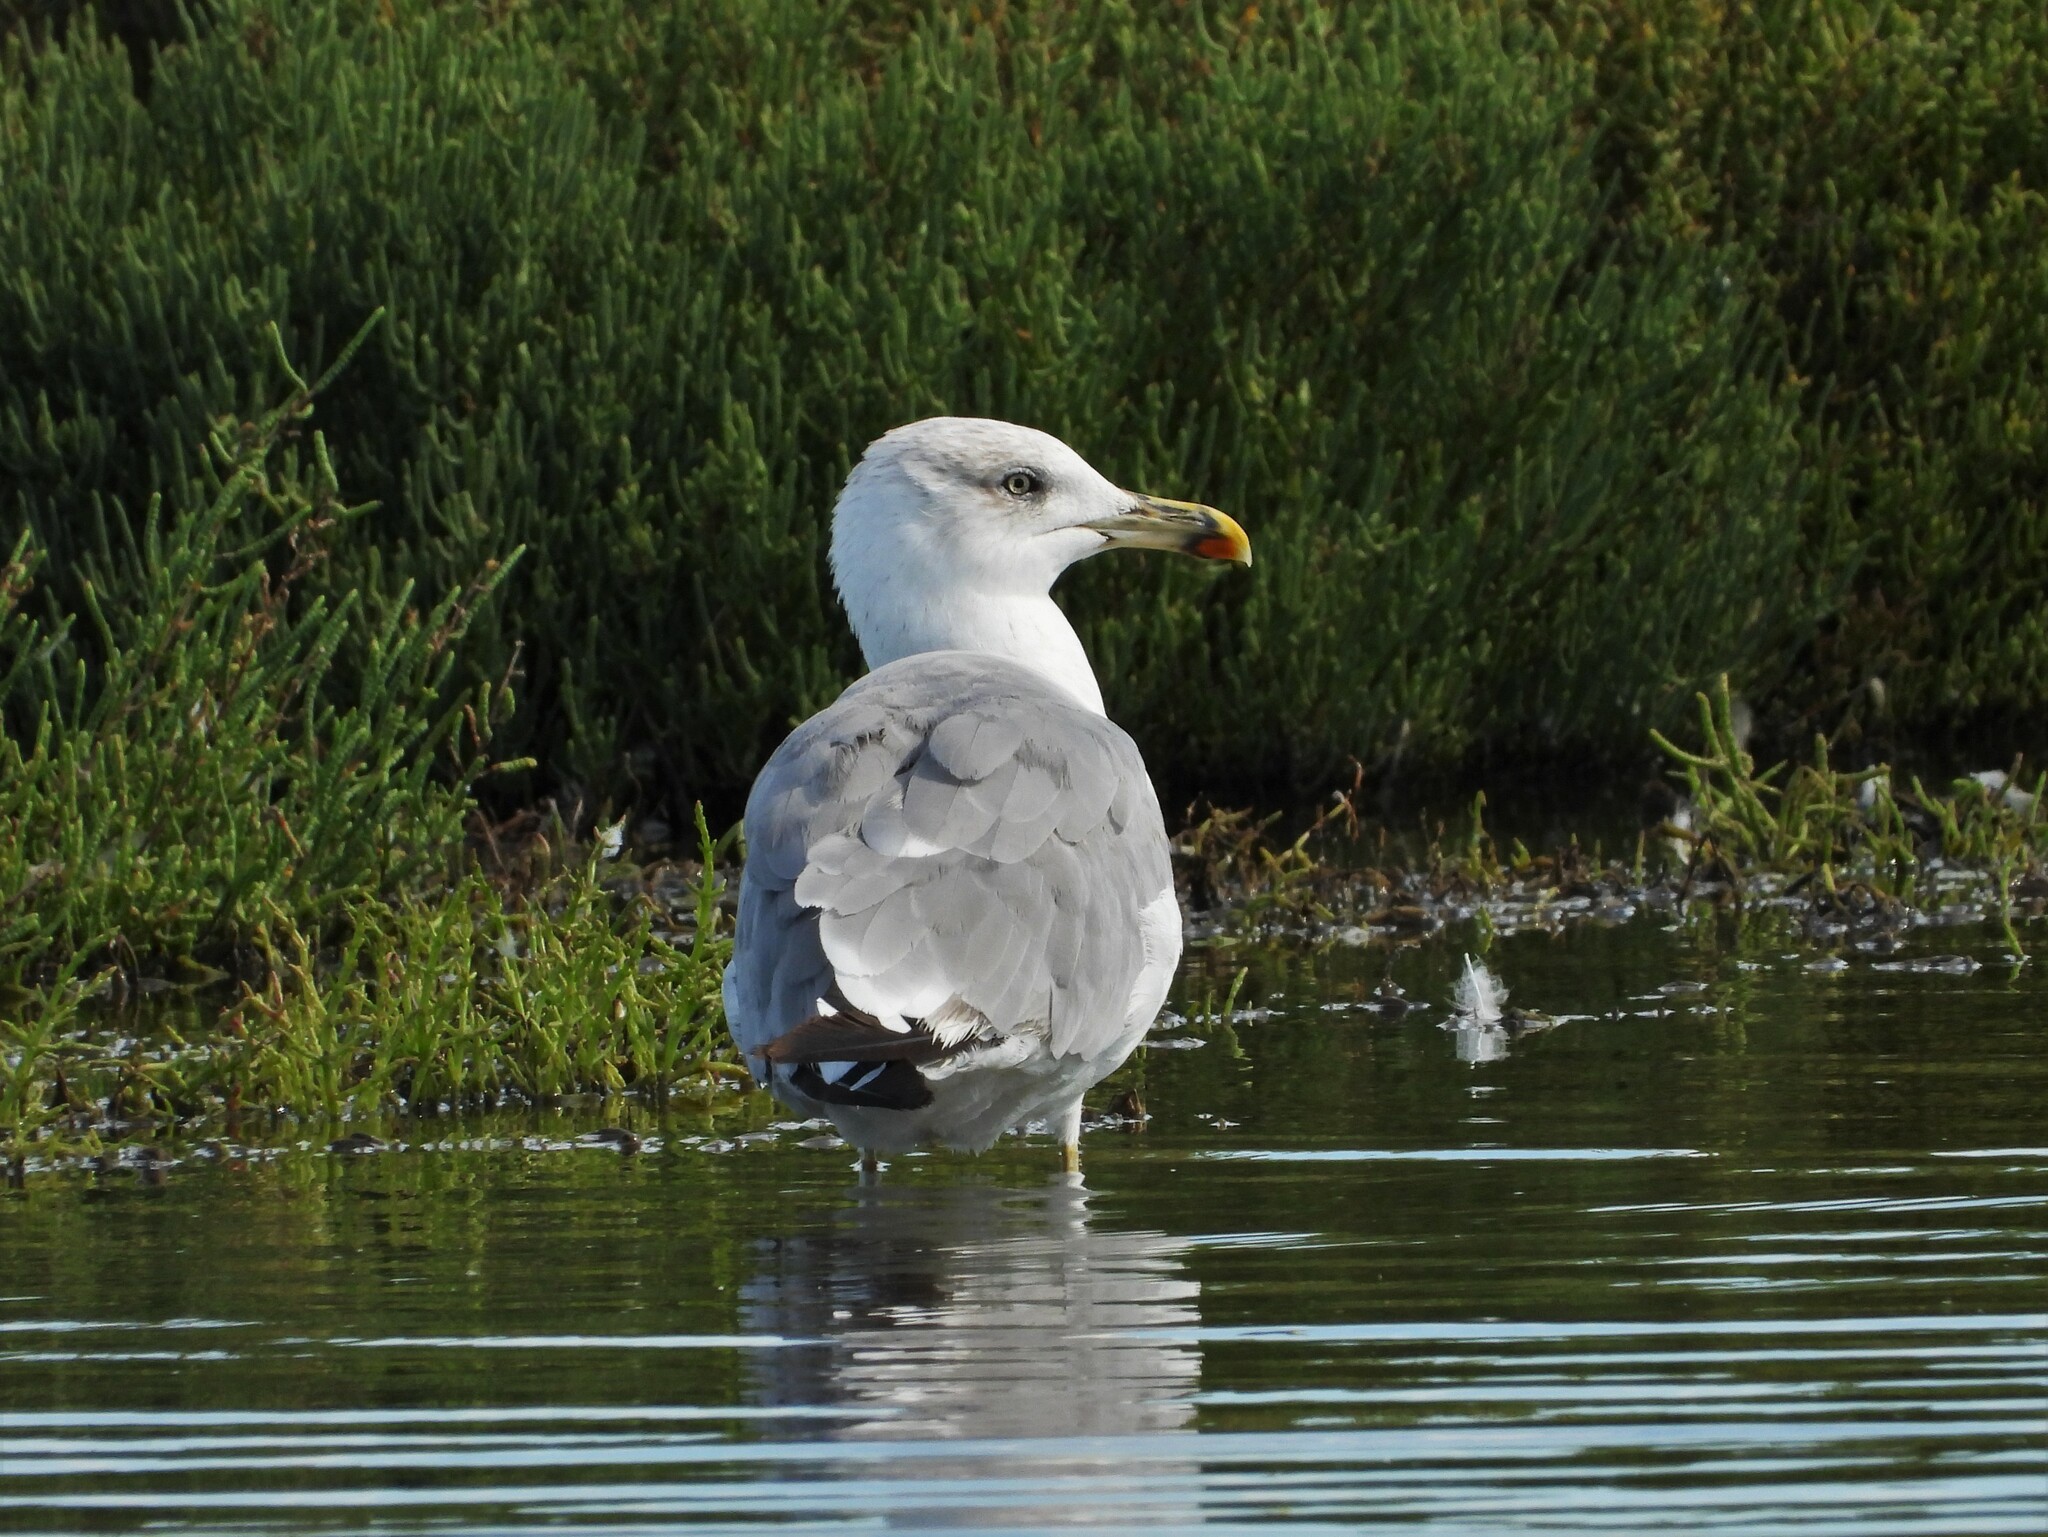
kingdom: Animalia
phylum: Chordata
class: Aves
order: Charadriiformes
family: Laridae
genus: Larus
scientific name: Larus michahellis
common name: Yellow-legged gull
